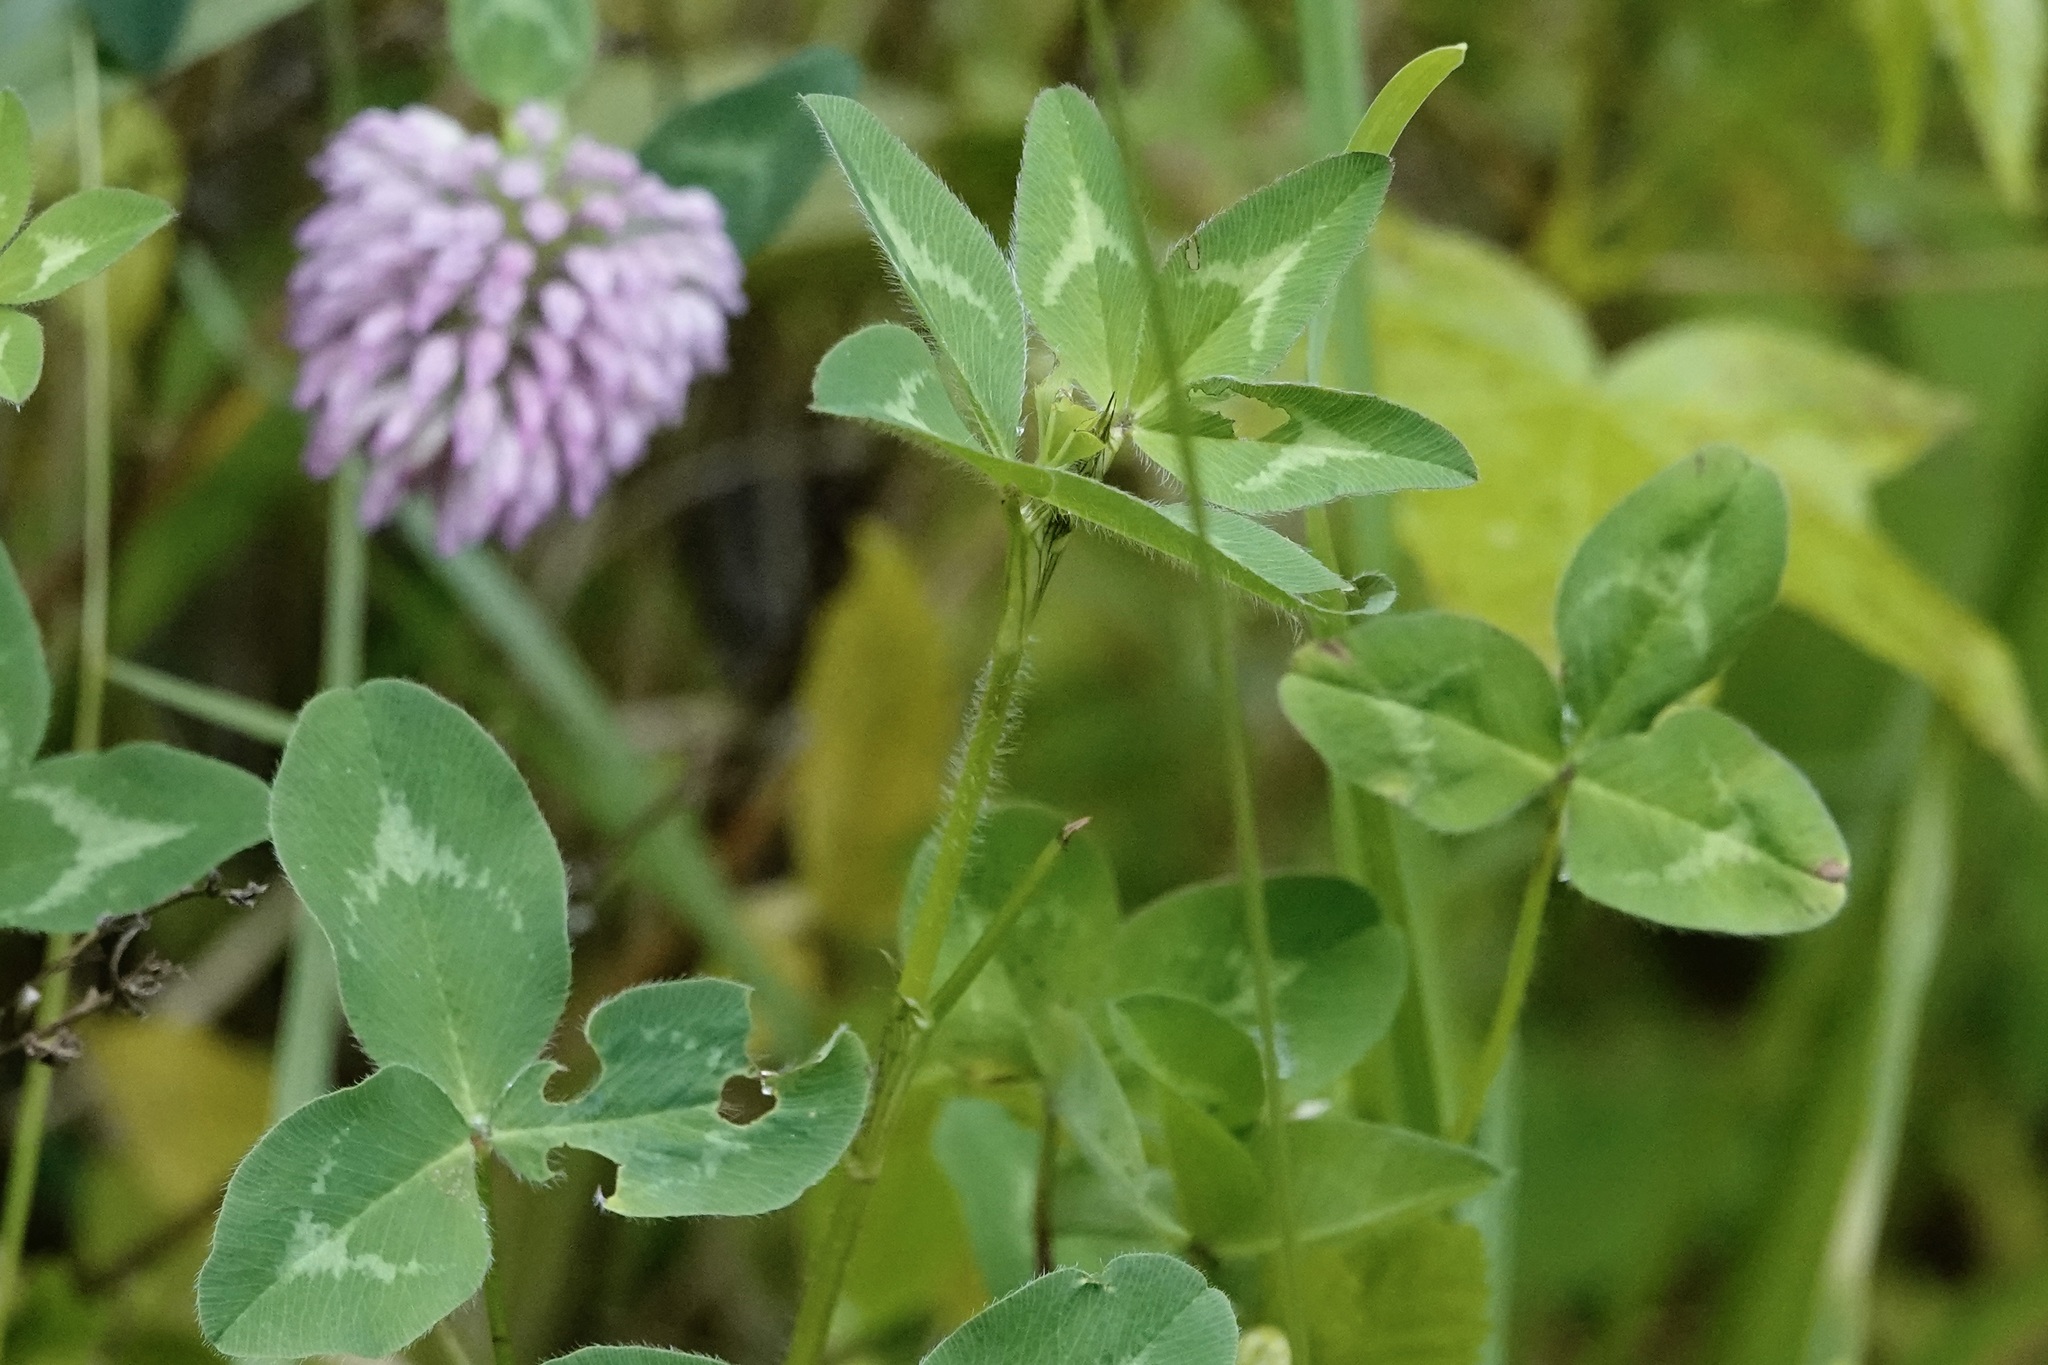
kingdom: Plantae
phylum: Tracheophyta
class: Magnoliopsida
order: Fabales
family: Fabaceae
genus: Trifolium
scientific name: Trifolium pratense
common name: Red clover
